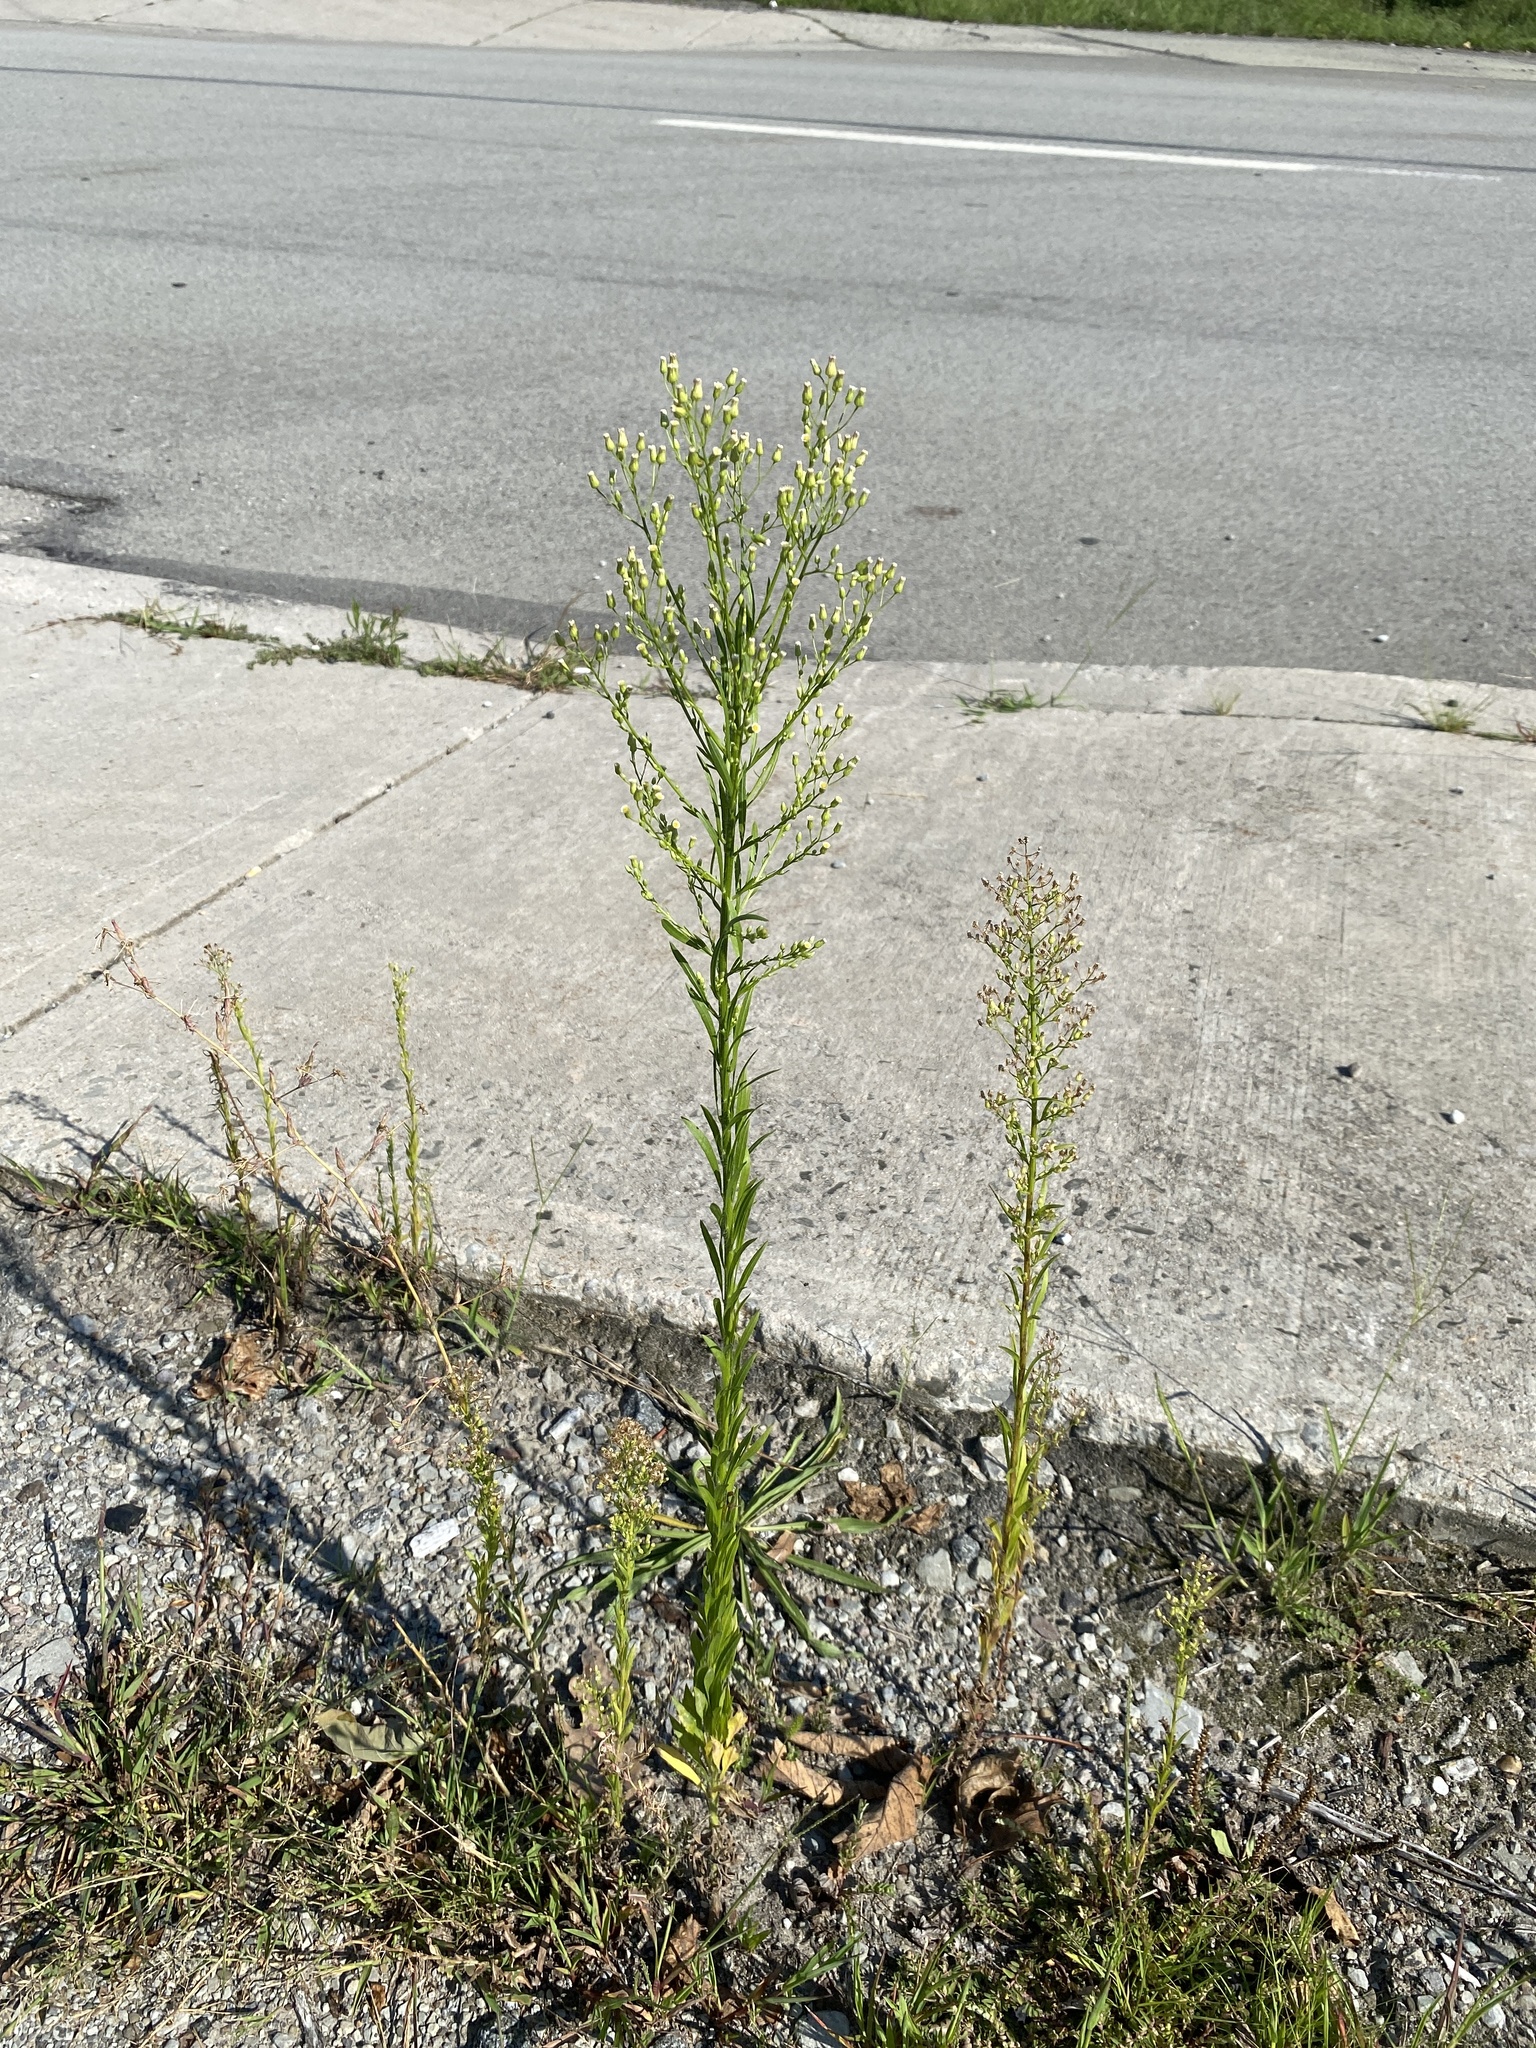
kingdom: Plantae
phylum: Tracheophyta
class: Magnoliopsida
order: Asterales
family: Asteraceae
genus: Erigeron
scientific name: Erigeron canadensis
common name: Canadian fleabane
